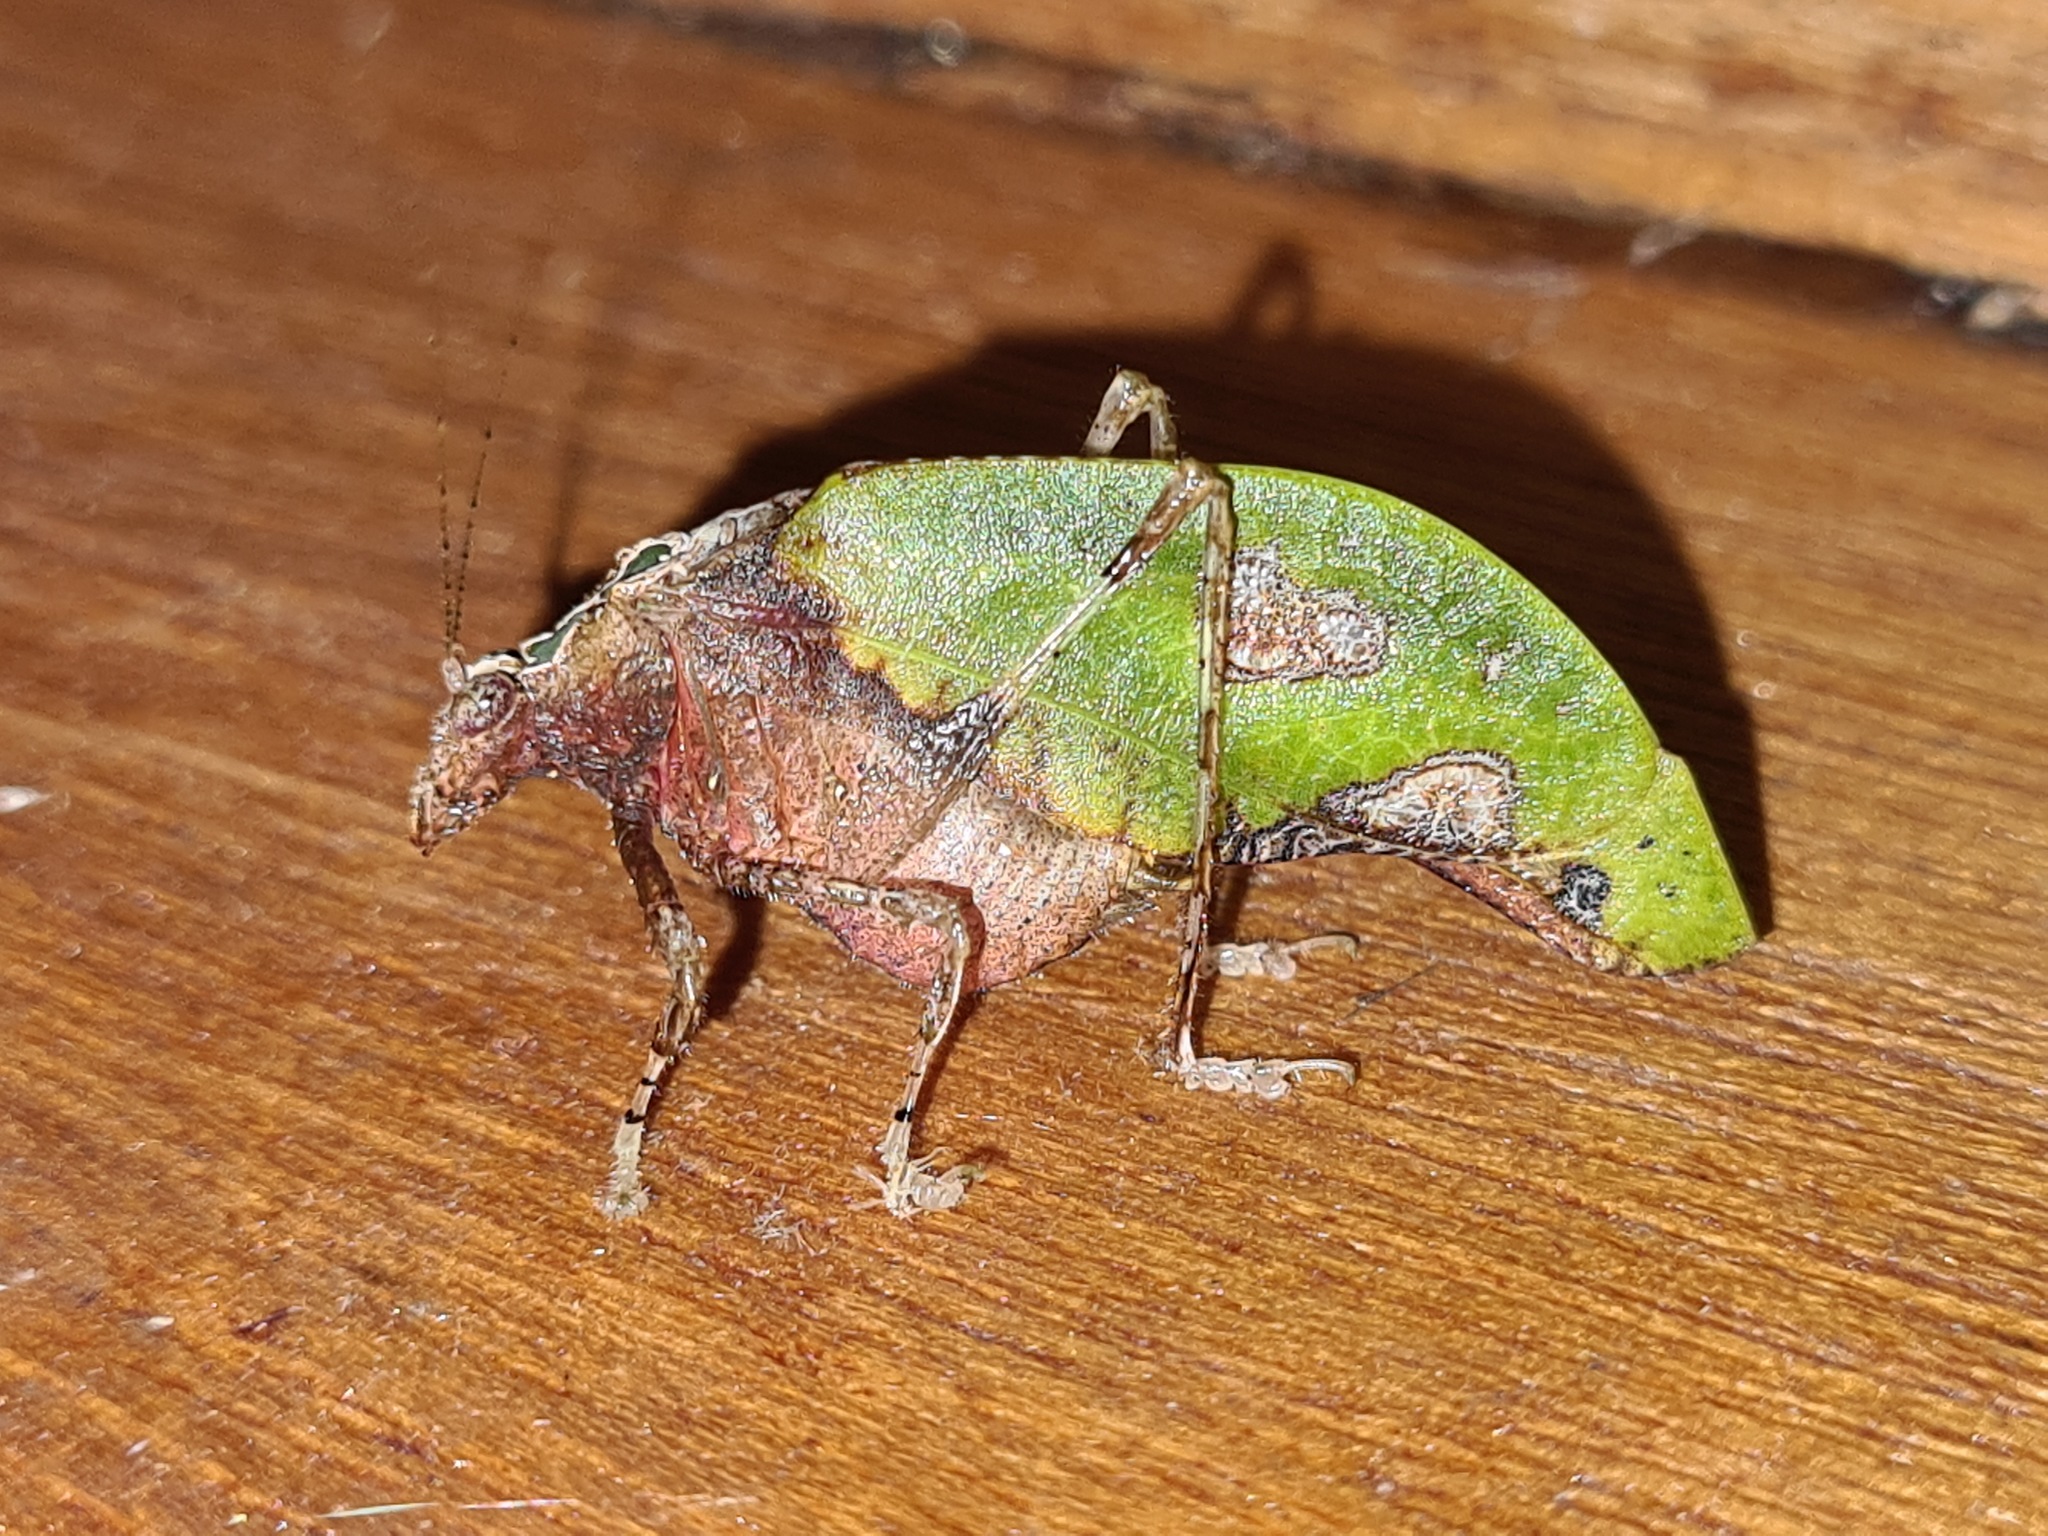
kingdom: Animalia
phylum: Arthropoda
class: Insecta
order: Orthoptera
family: Tettigoniidae
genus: Pycnopalpa
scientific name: Pycnopalpa bicordata
